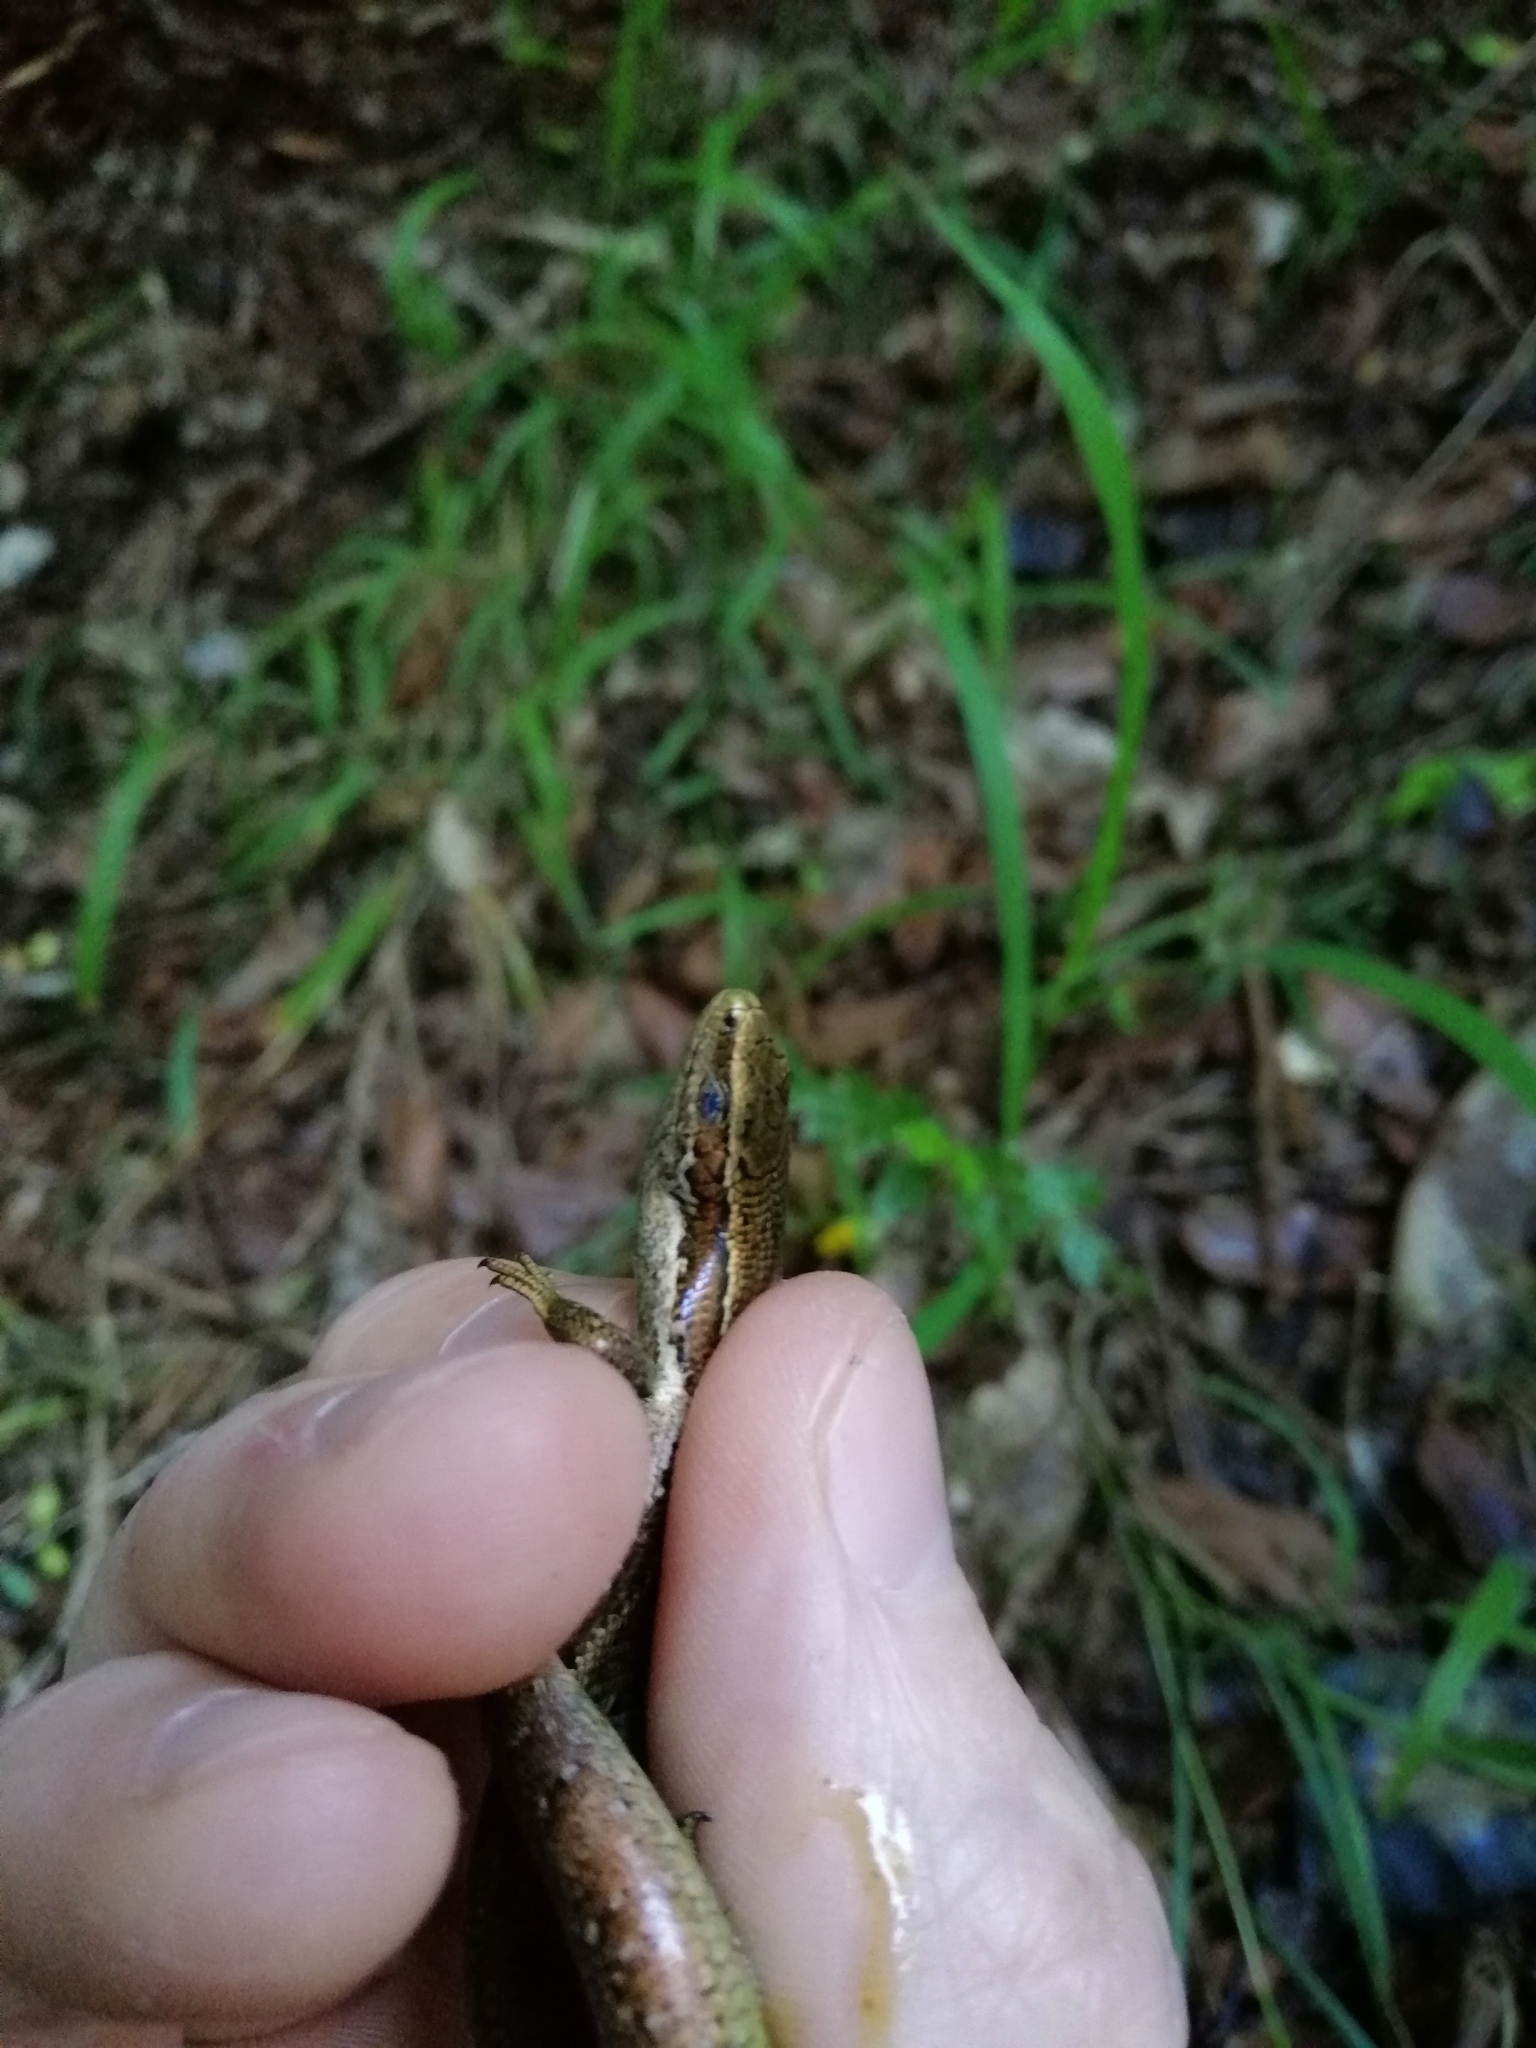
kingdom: Animalia
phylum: Chordata
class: Squamata
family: Scincidae
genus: Oligosoma
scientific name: Oligosoma polychroma
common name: Common new zealand skink
